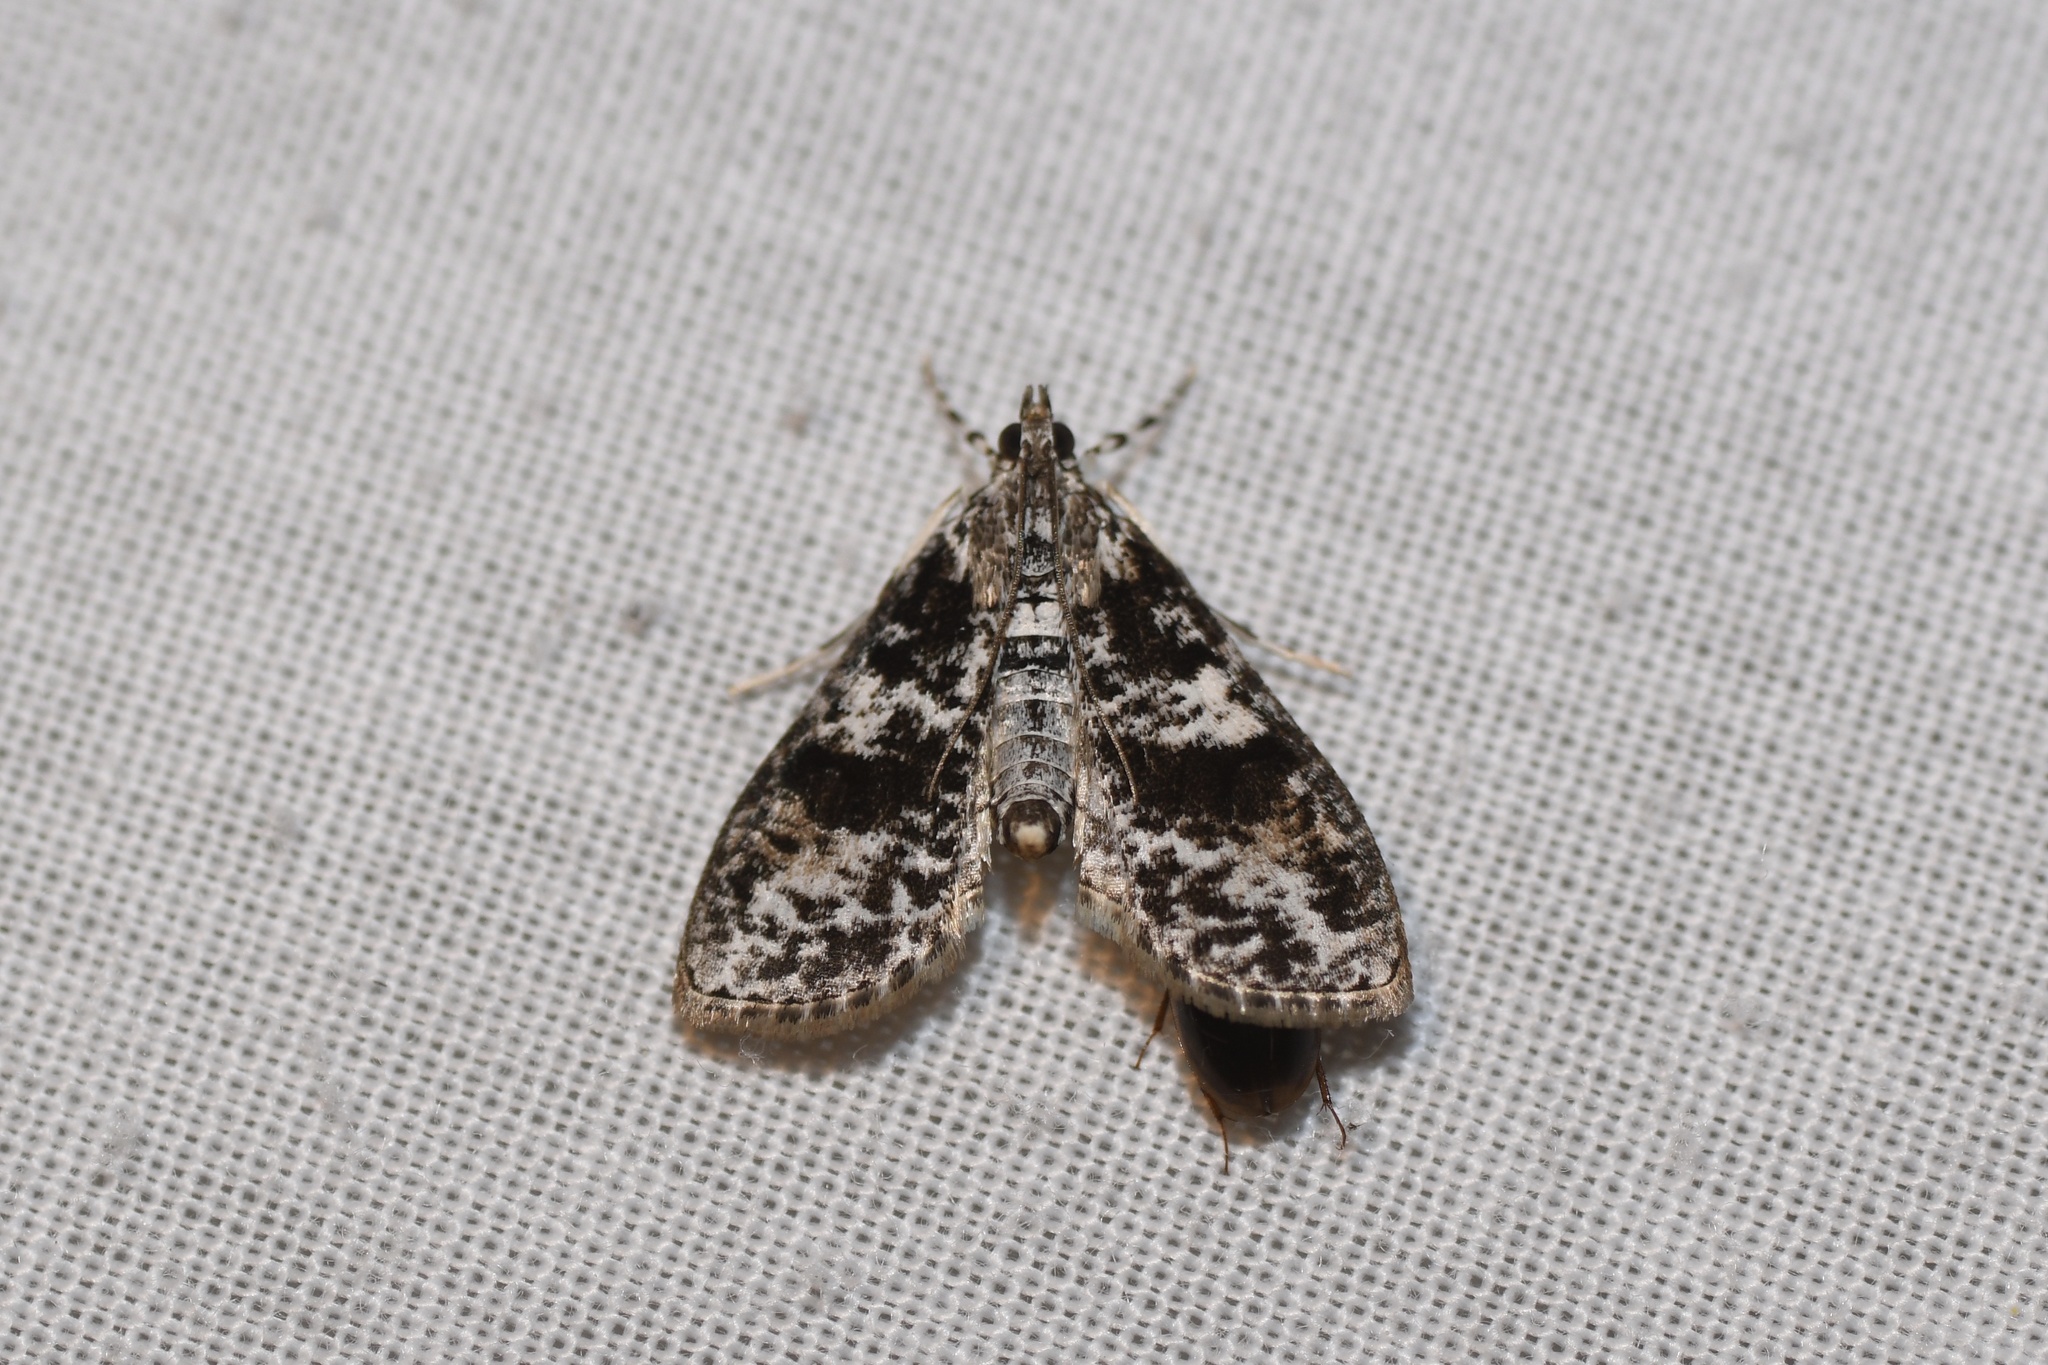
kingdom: Animalia
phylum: Arthropoda
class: Insecta
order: Lepidoptera
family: Crambidae
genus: Palpita
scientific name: Palpita magniferalis
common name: Splendid palpita moth
